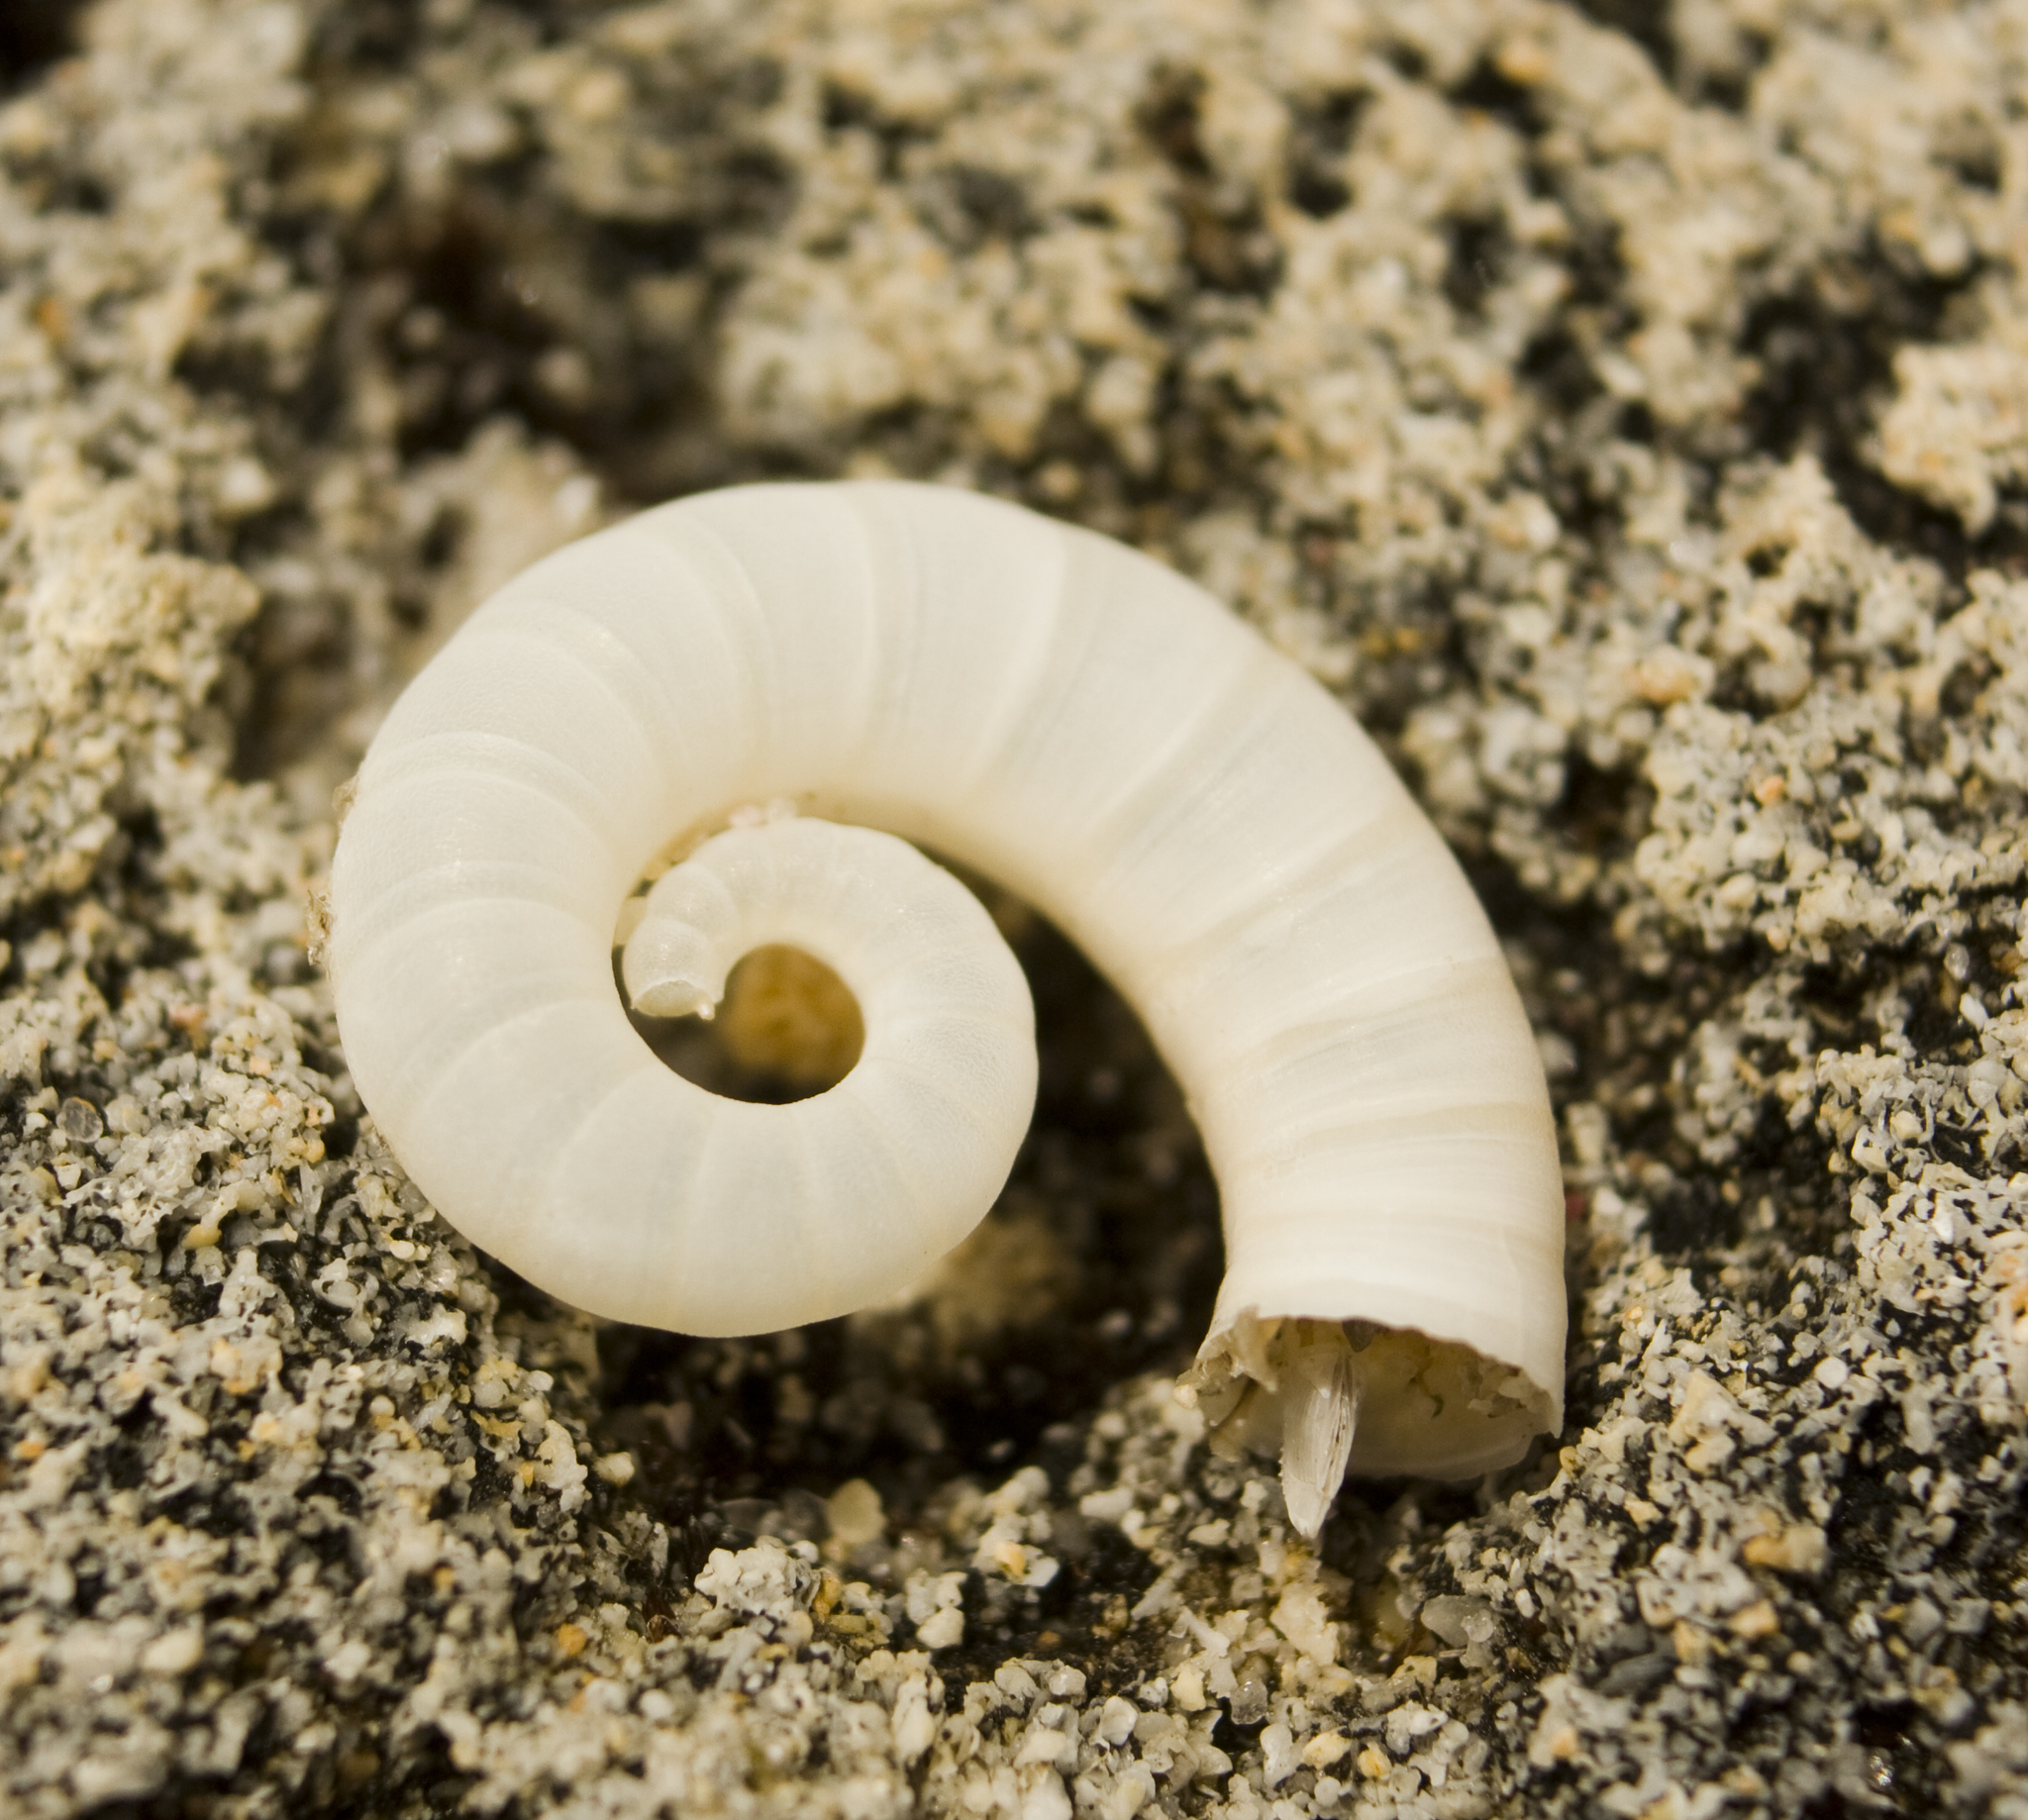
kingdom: Animalia
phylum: Mollusca
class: Cephalopoda
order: Spirulida
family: Spirulidae
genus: Spirula
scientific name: Spirula spirula
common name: Ram's horn squid
